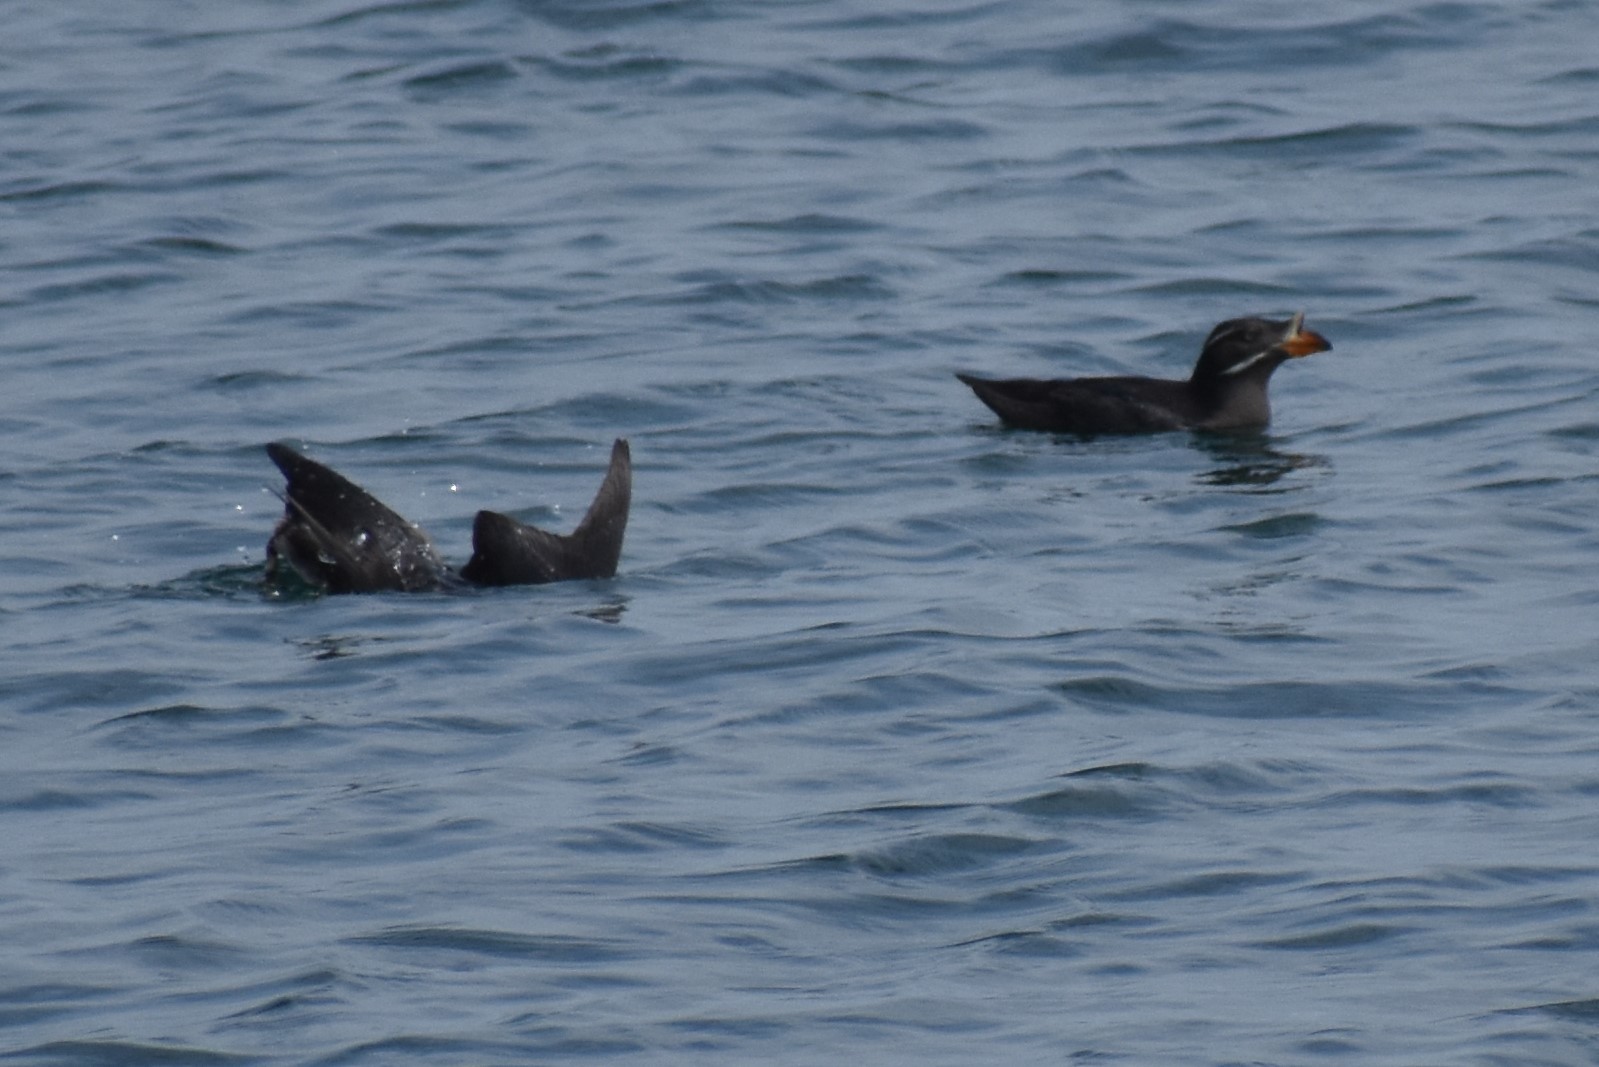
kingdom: Animalia
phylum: Chordata
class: Aves
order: Charadriiformes
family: Alcidae
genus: Cerorhinca
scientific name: Cerorhinca monocerata
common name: Rhinoceros auklet
